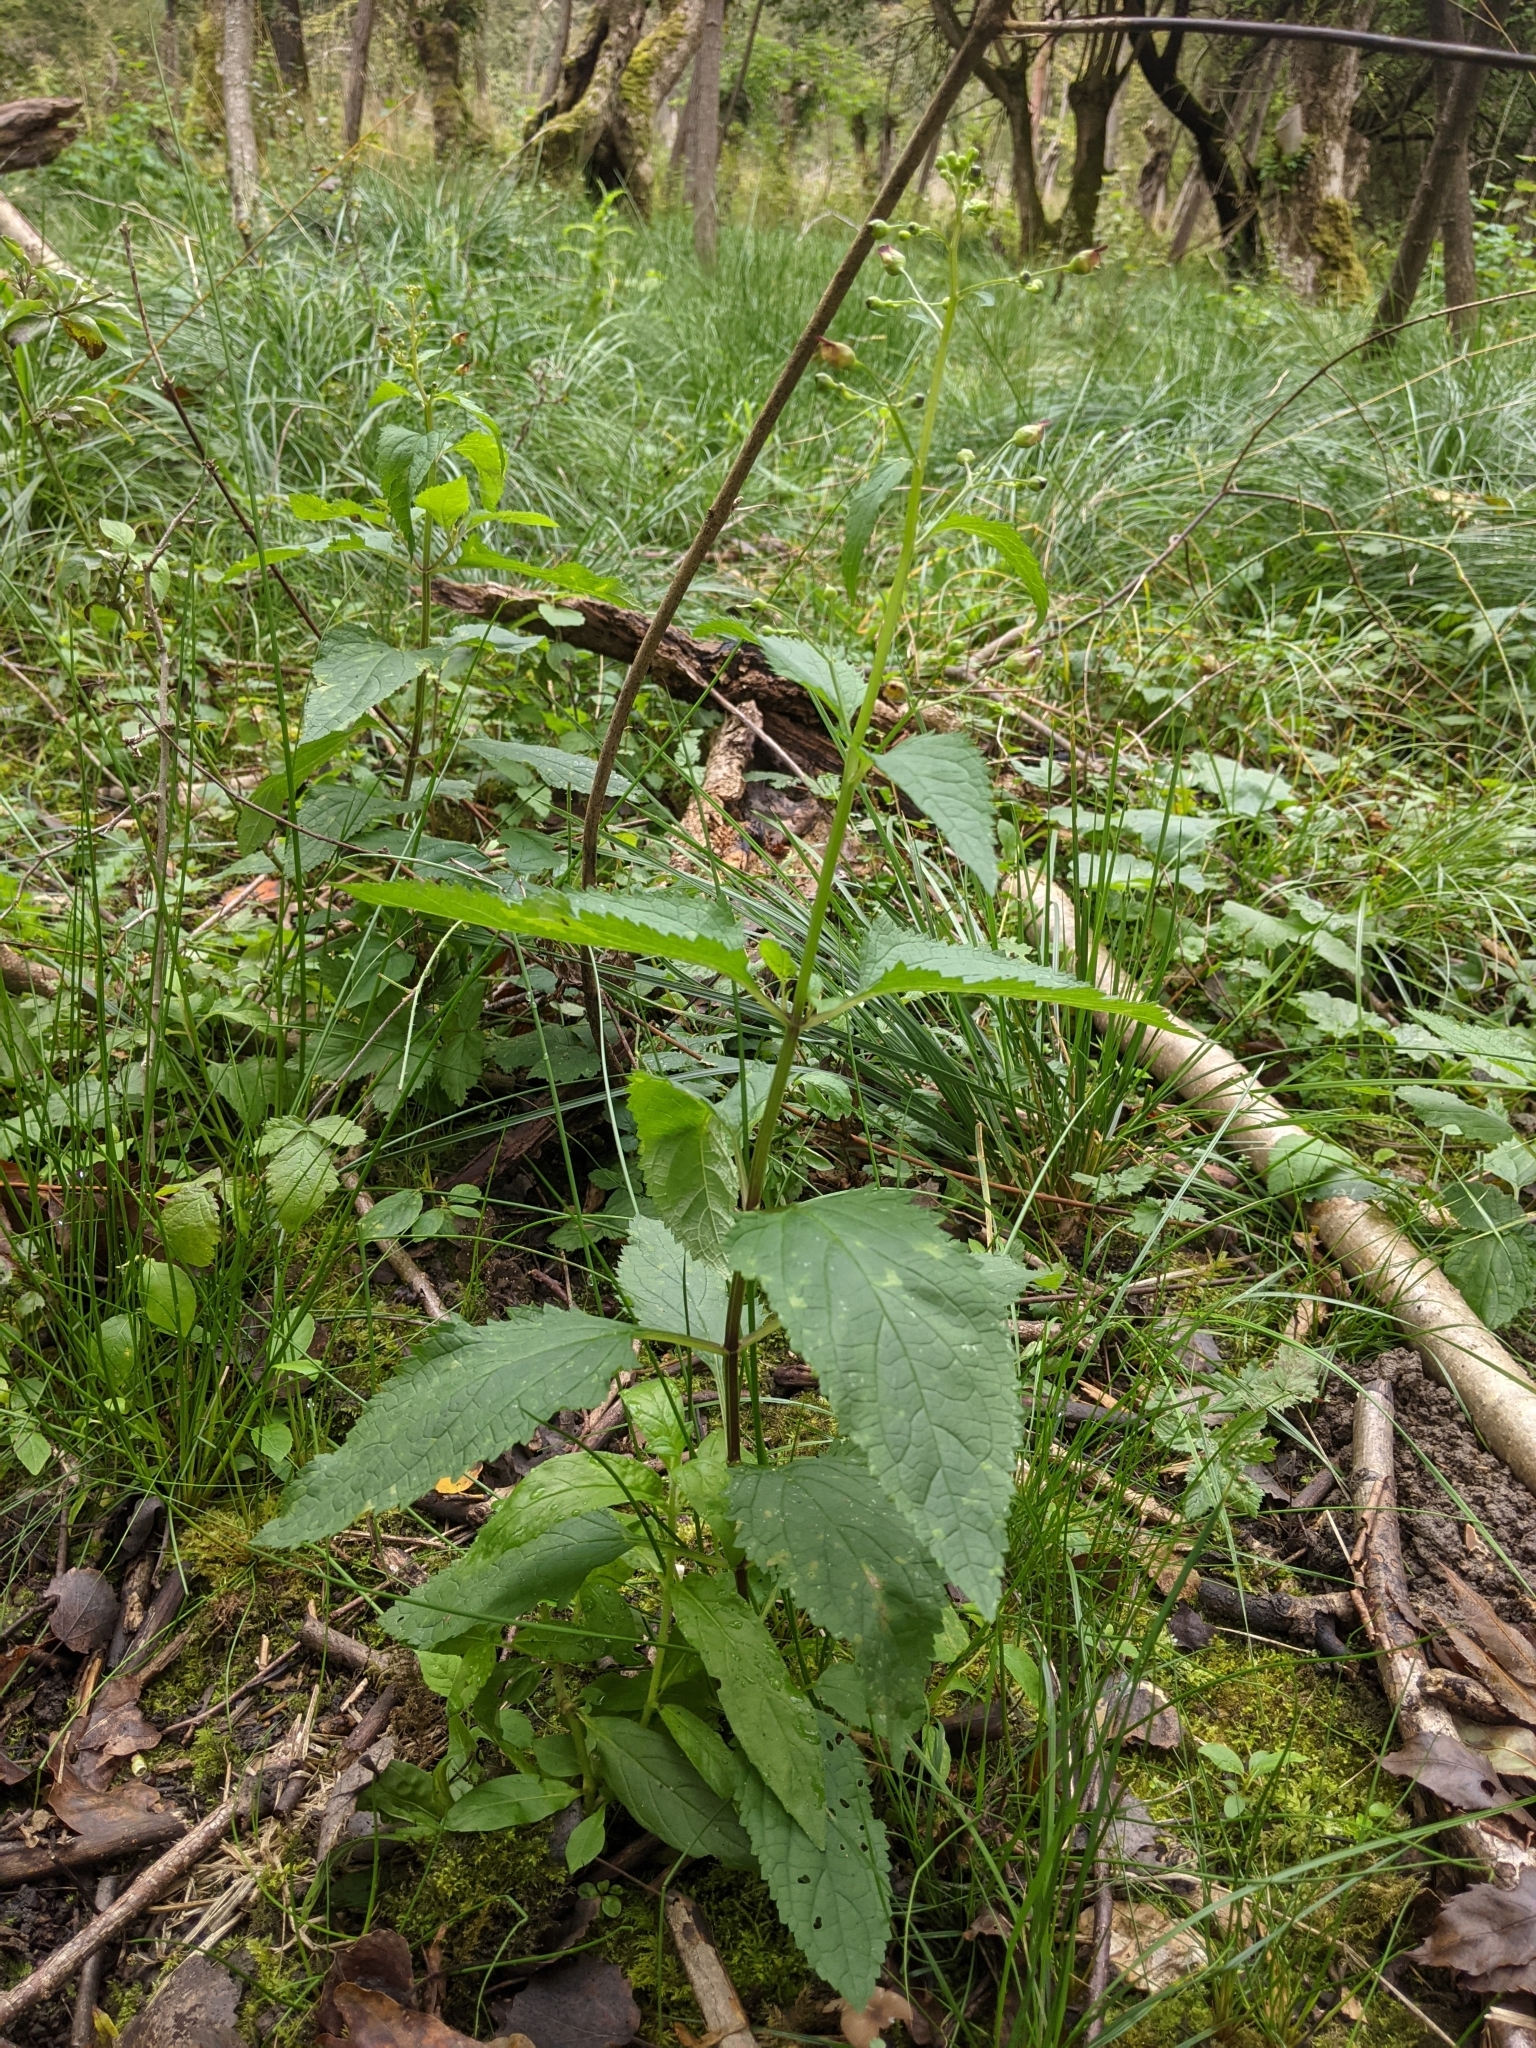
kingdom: Plantae
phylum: Tracheophyta
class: Magnoliopsida
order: Lamiales
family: Scrophulariaceae
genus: Scrophularia
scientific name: Scrophularia nodosa
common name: Common figwort
